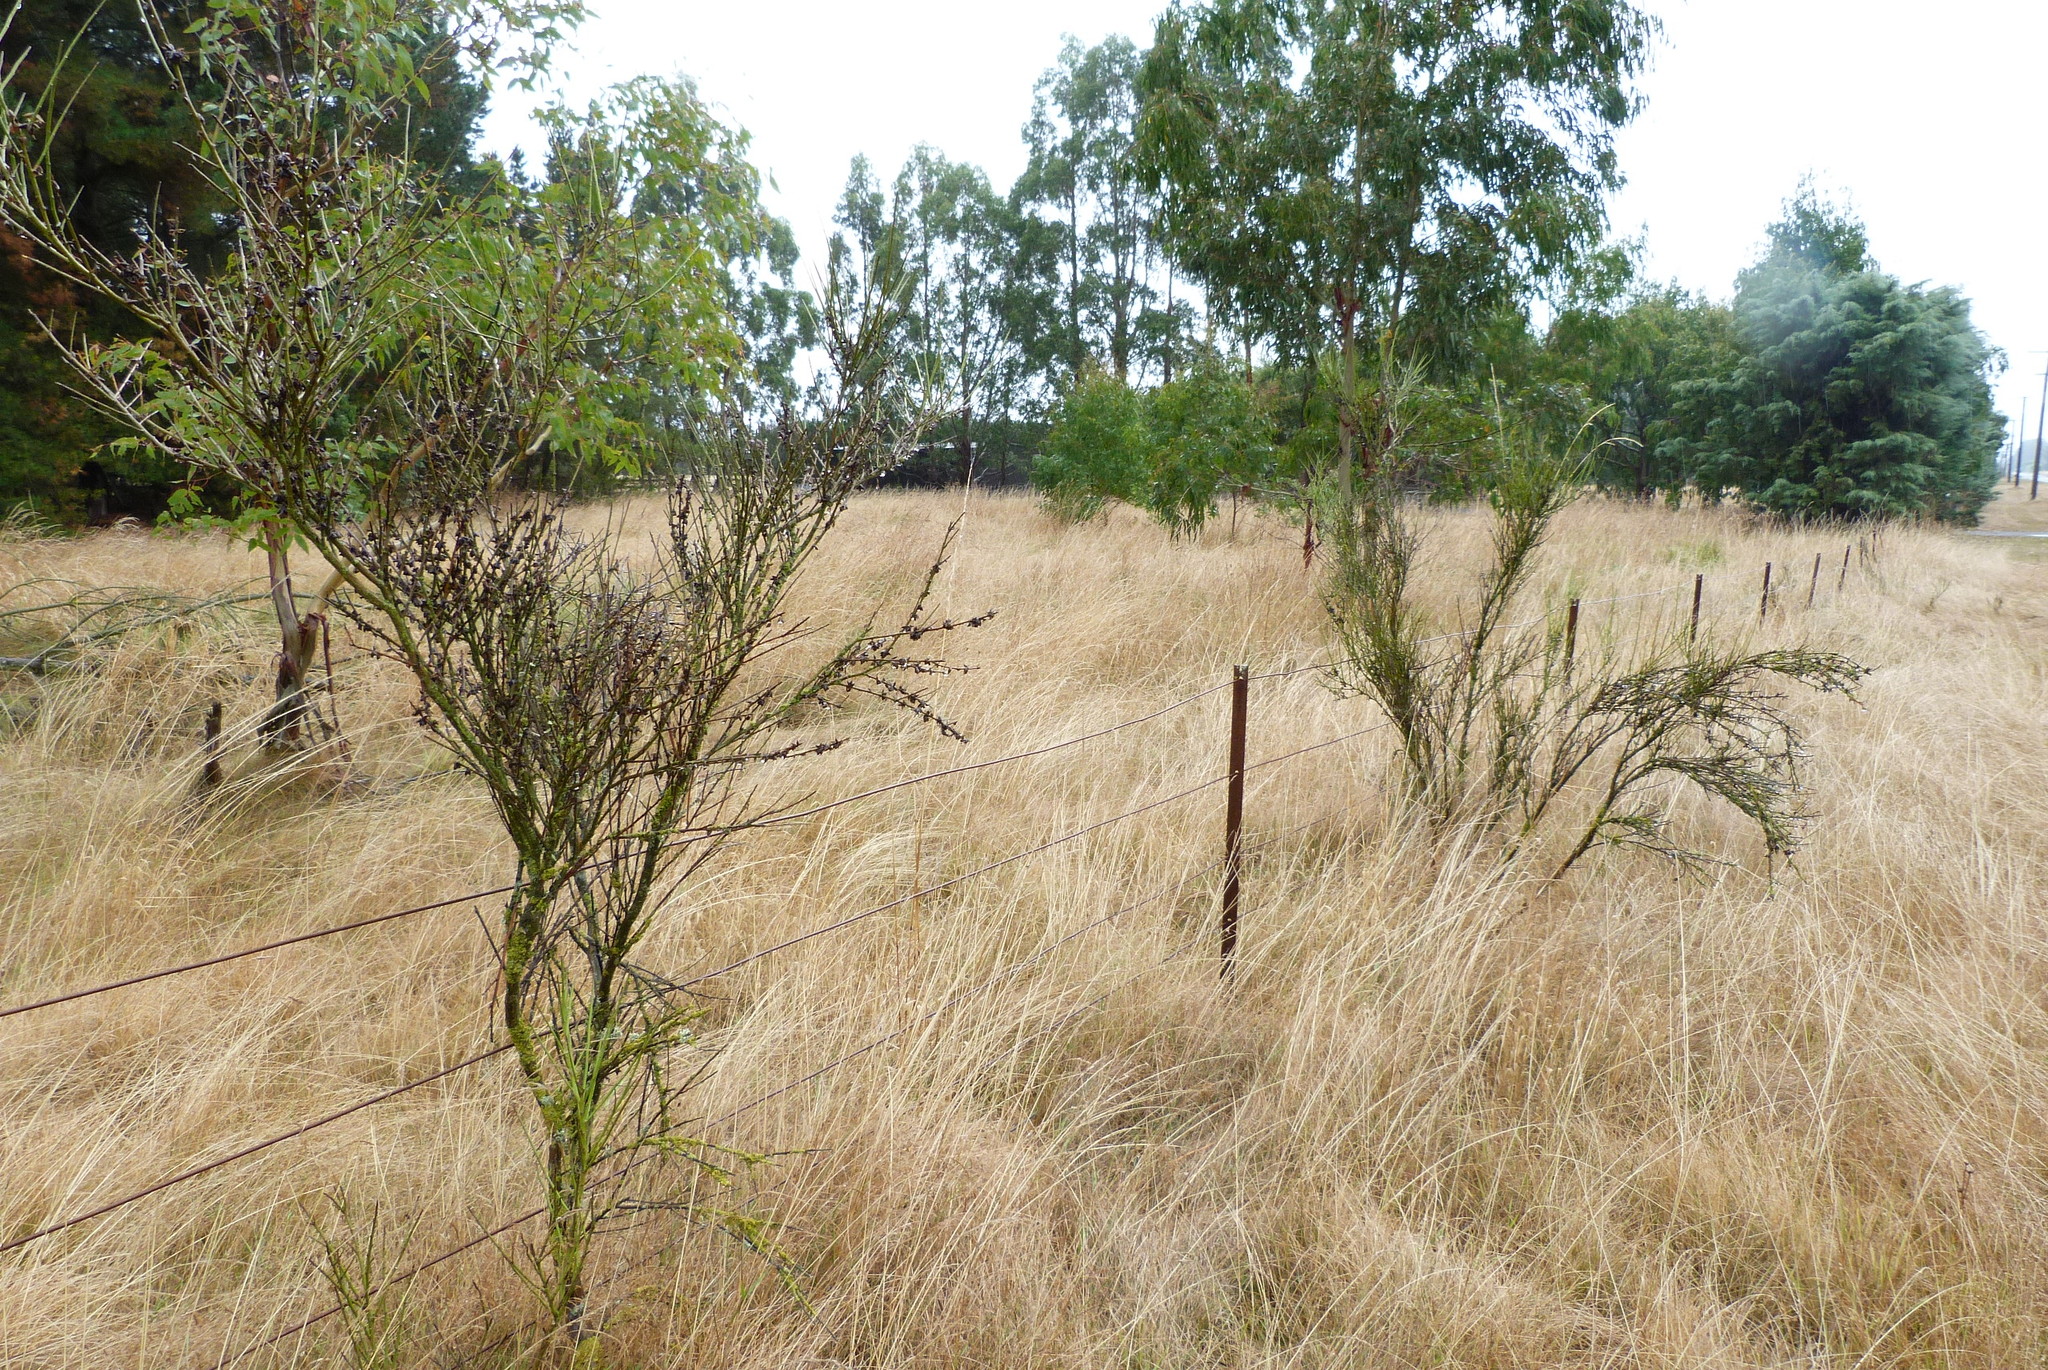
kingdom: Plantae
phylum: Tracheophyta
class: Magnoliopsida
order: Fabales
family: Fabaceae
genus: Carmichaelia
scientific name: Carmichaelia australis
